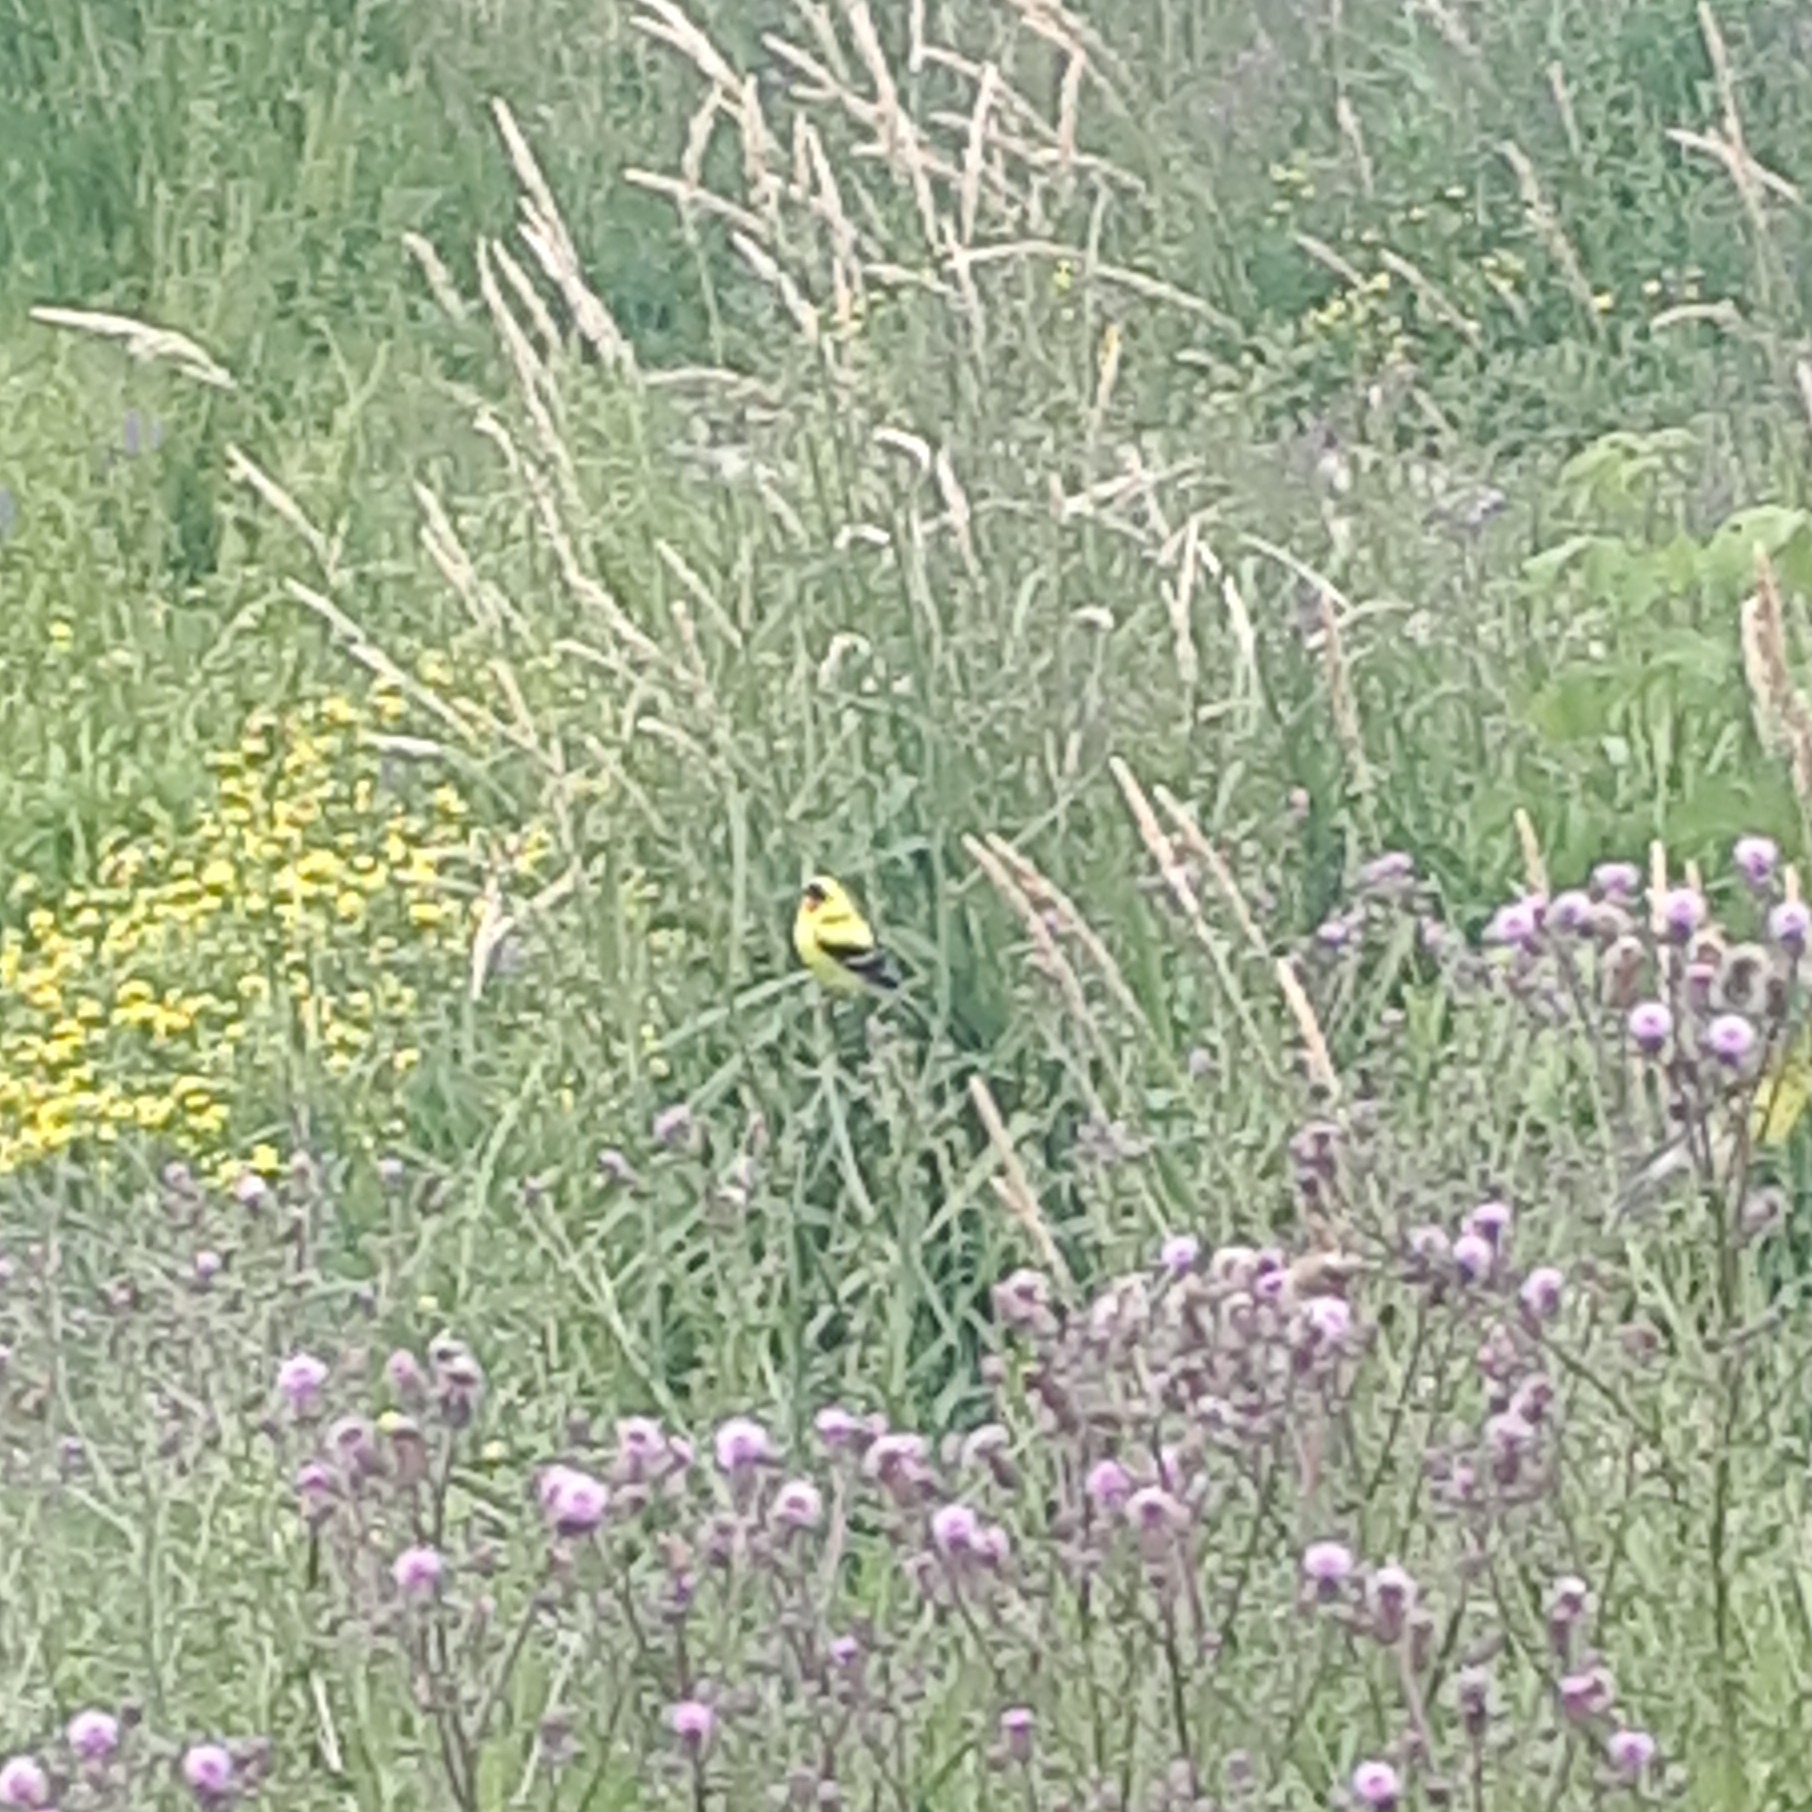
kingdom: Animalia
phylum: Chordata
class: Aves
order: Passeriformes
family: Fringillidae
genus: Spinus
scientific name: Spinus tristis
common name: American goldfinch
